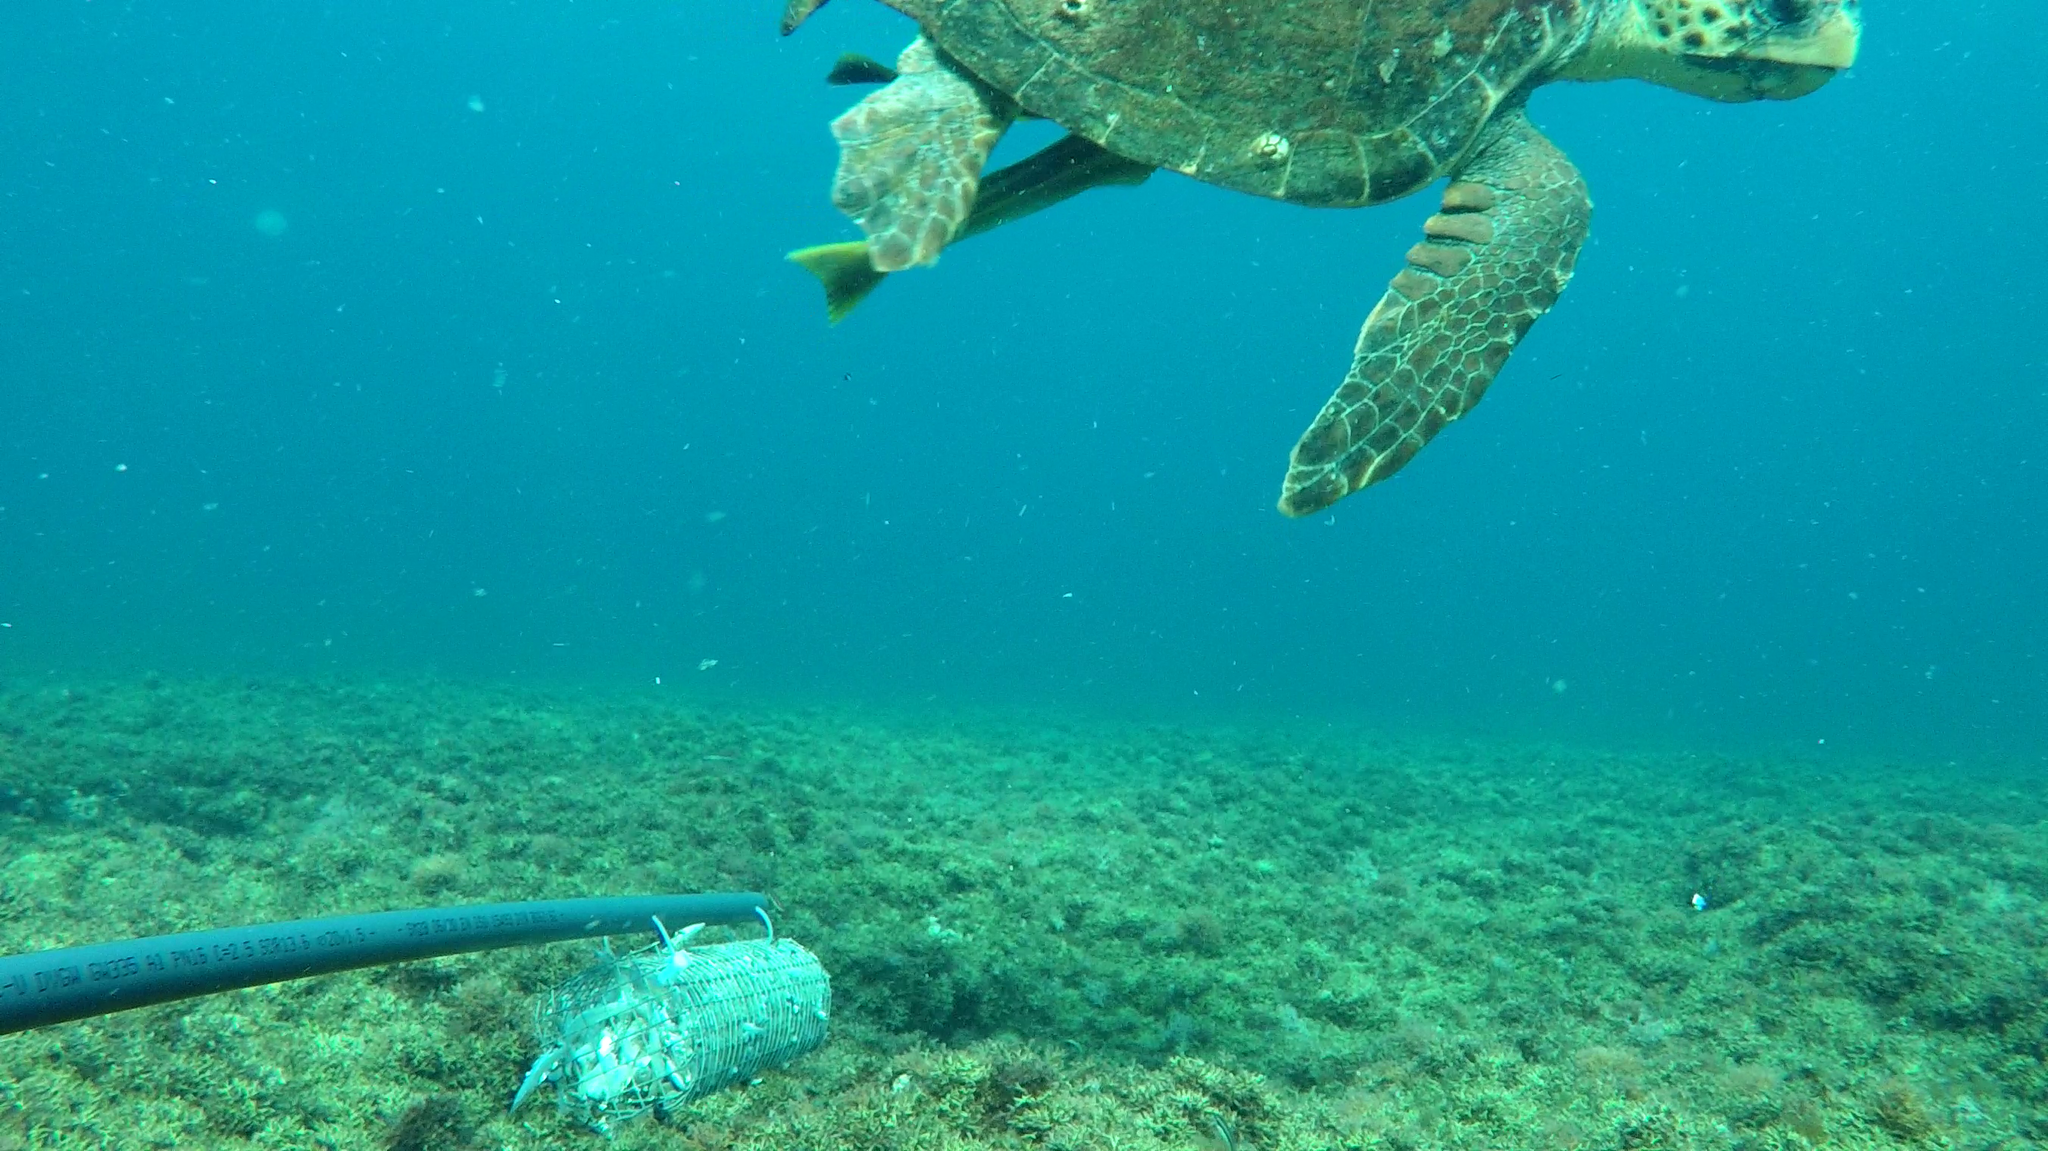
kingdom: Animalia
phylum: Chordata
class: Testudines
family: Cheloniidae
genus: Caretta
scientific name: Caretta caretta
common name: Loggerhead sea turtle
